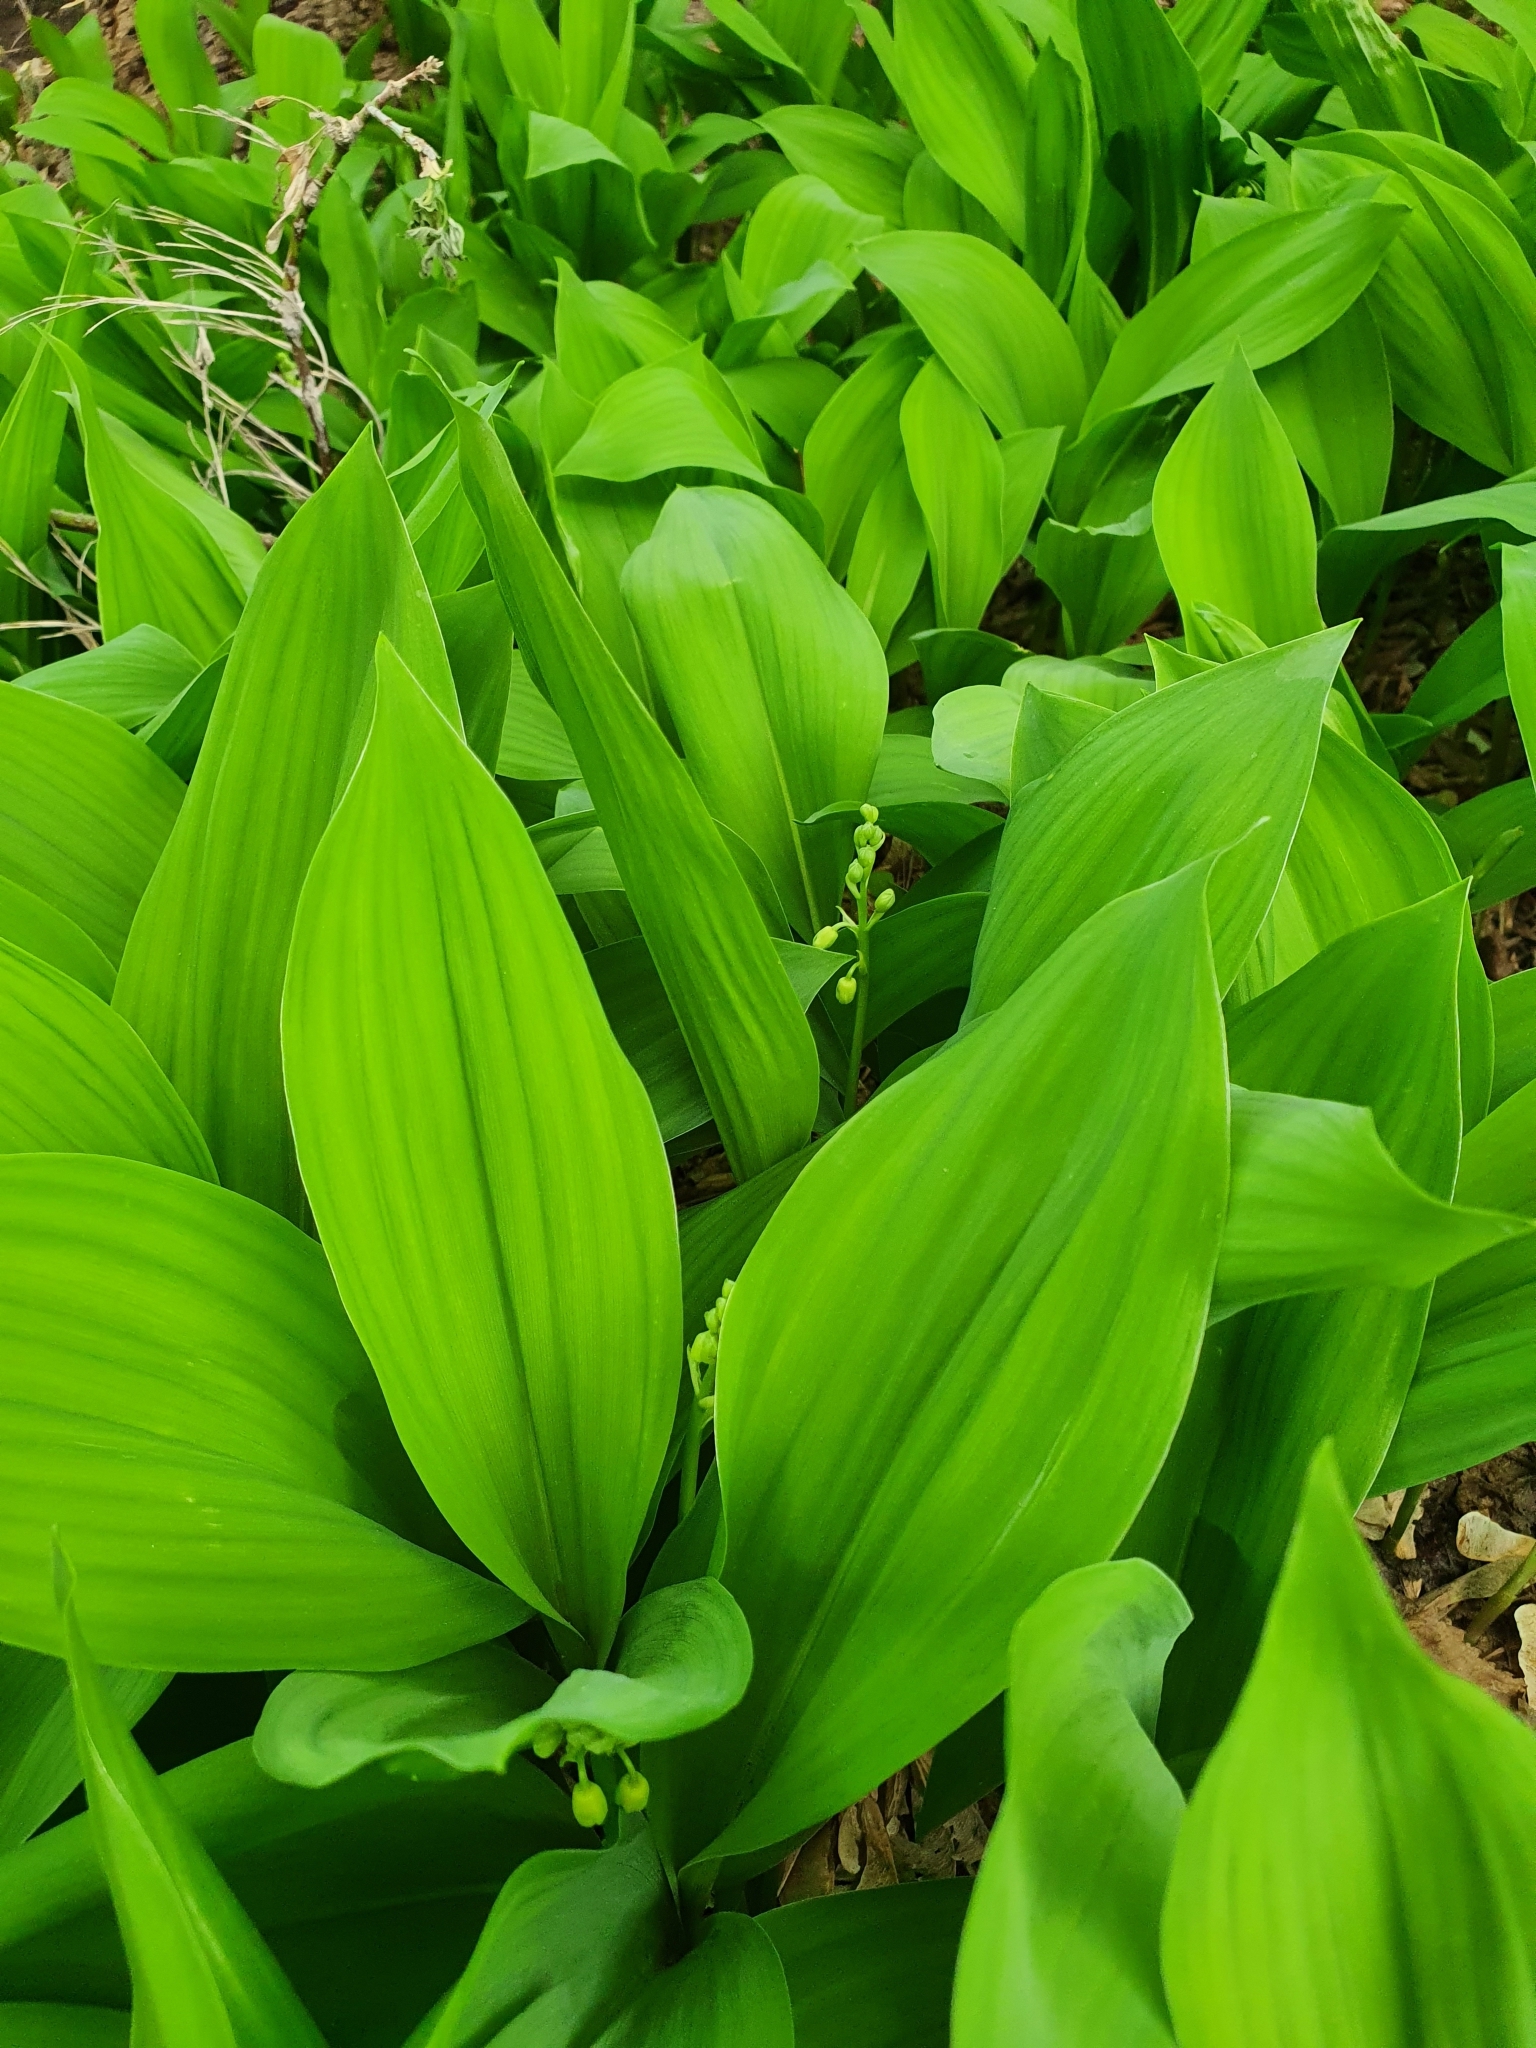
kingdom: Plantae
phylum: Tracheophyta
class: Liliopsida
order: Asparagales
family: Asparagaceae
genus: Convallaria
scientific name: Convallaria majalis
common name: Lily-of-the-valley
